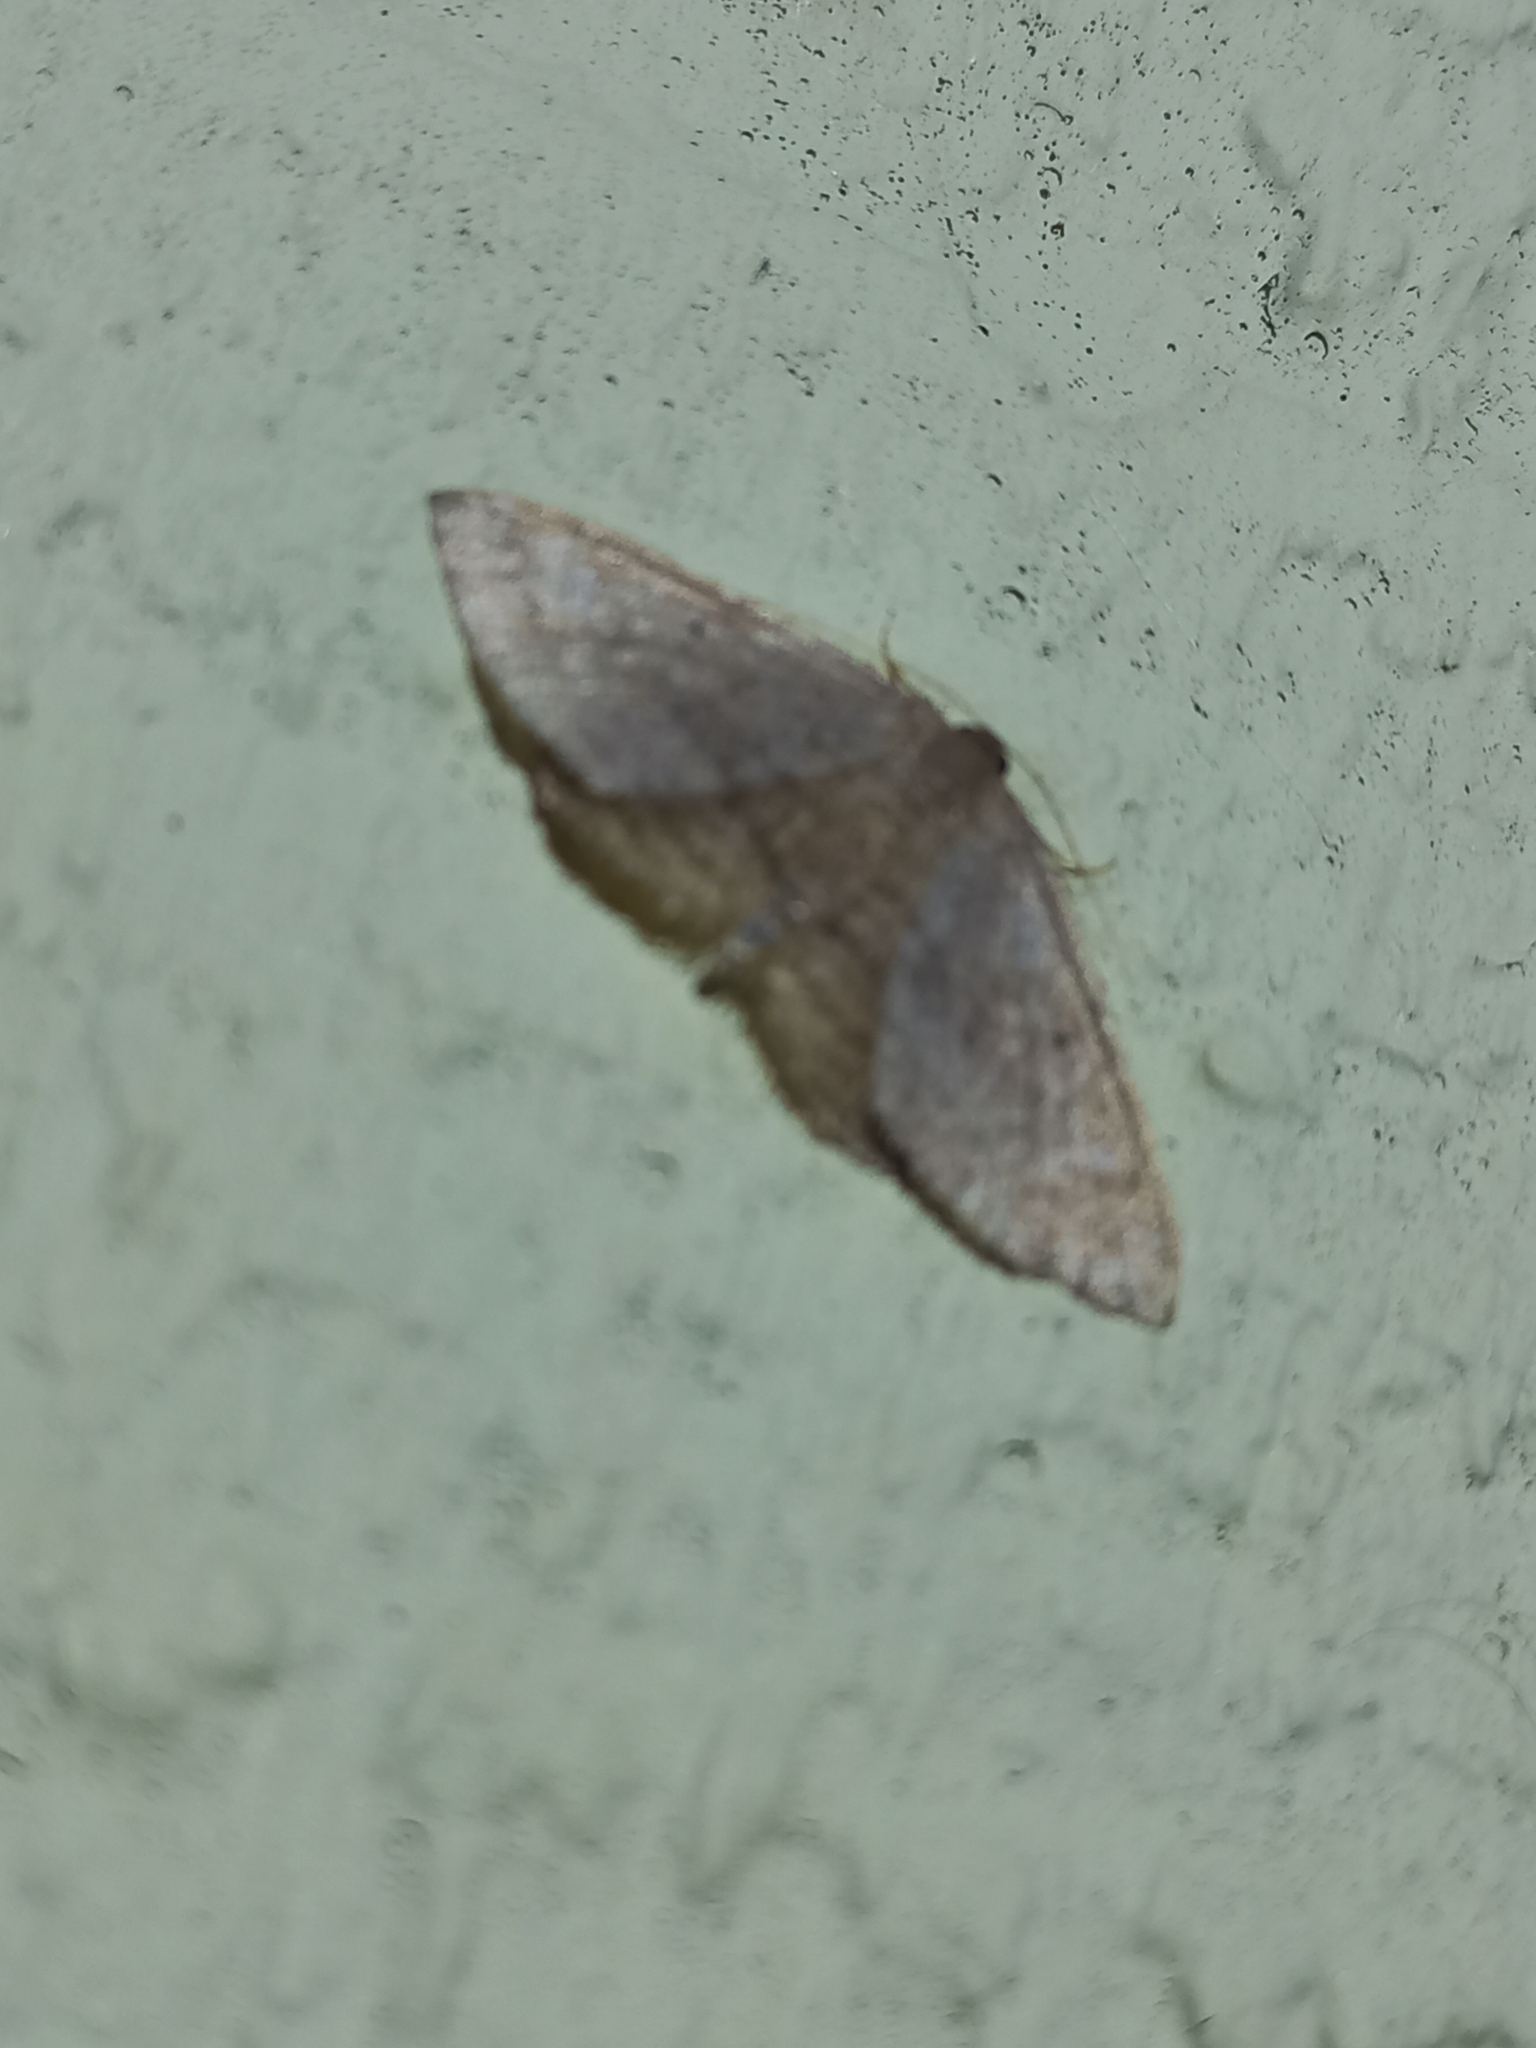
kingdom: Animalia
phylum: Arthropoda
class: Insecta
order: Lepidoptera
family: Geometridae
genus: Poecilasthena
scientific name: Poecilasthena schistaria
